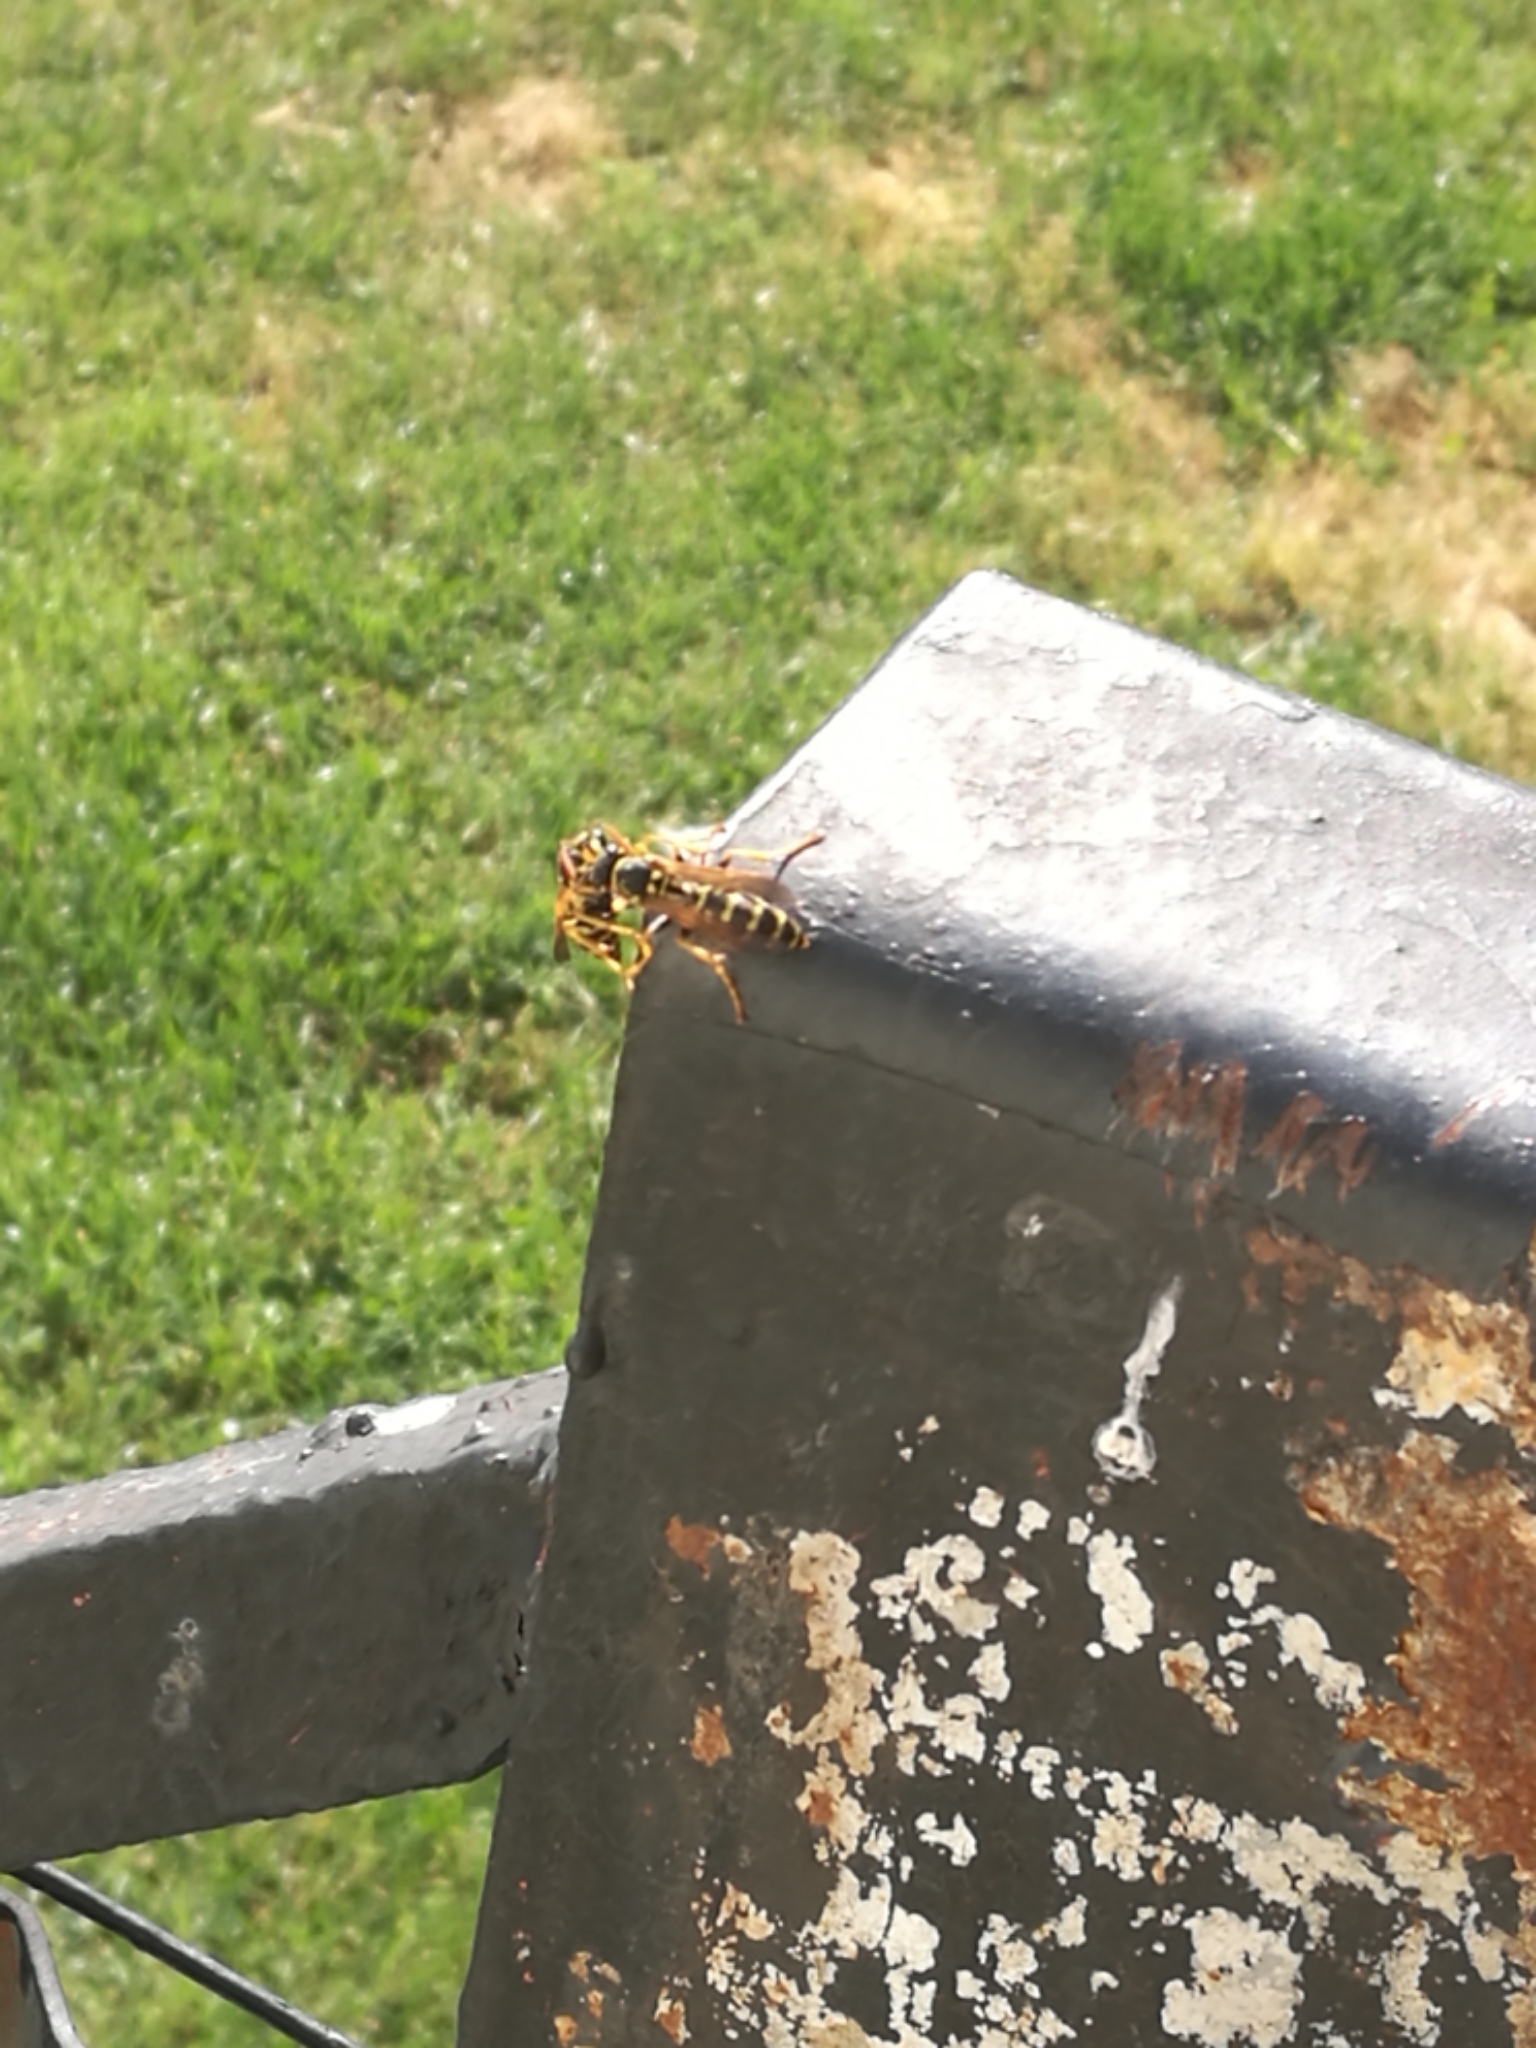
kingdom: Animalia
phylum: Arthropoda
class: Insecta
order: Hymenoptera
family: Eumenidae
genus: Polistes
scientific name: Polistes dominula
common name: Paper wasp
